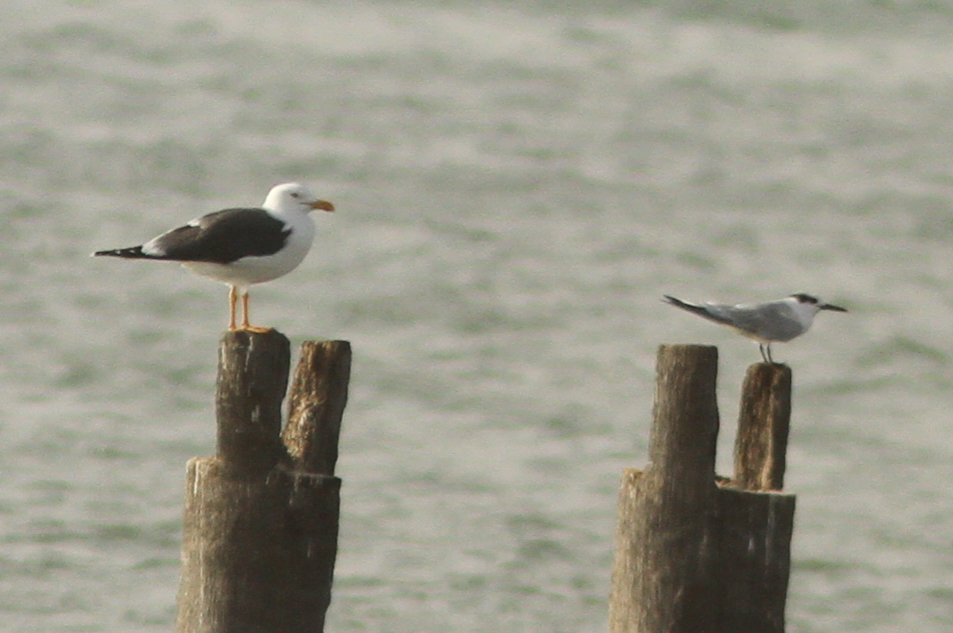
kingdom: Animalia
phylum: Chordata
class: Aves
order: Charadriiformes
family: Laridae
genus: Larus
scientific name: Larus fuscus
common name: Lesser black-backed gull
